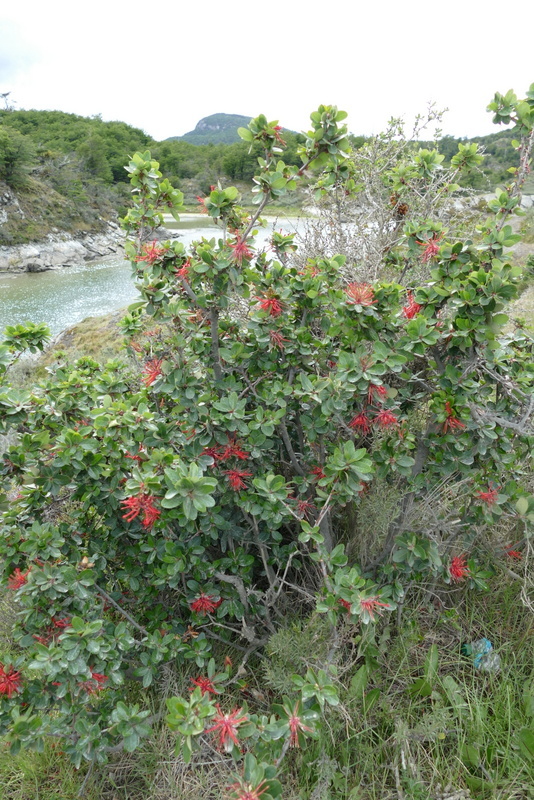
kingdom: Plantae
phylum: Tracheophyta
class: Magnoliopsida
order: Proteales
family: Proteaceae
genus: Embothrium
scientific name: Embothrium coccineum
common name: Chilean firebush
